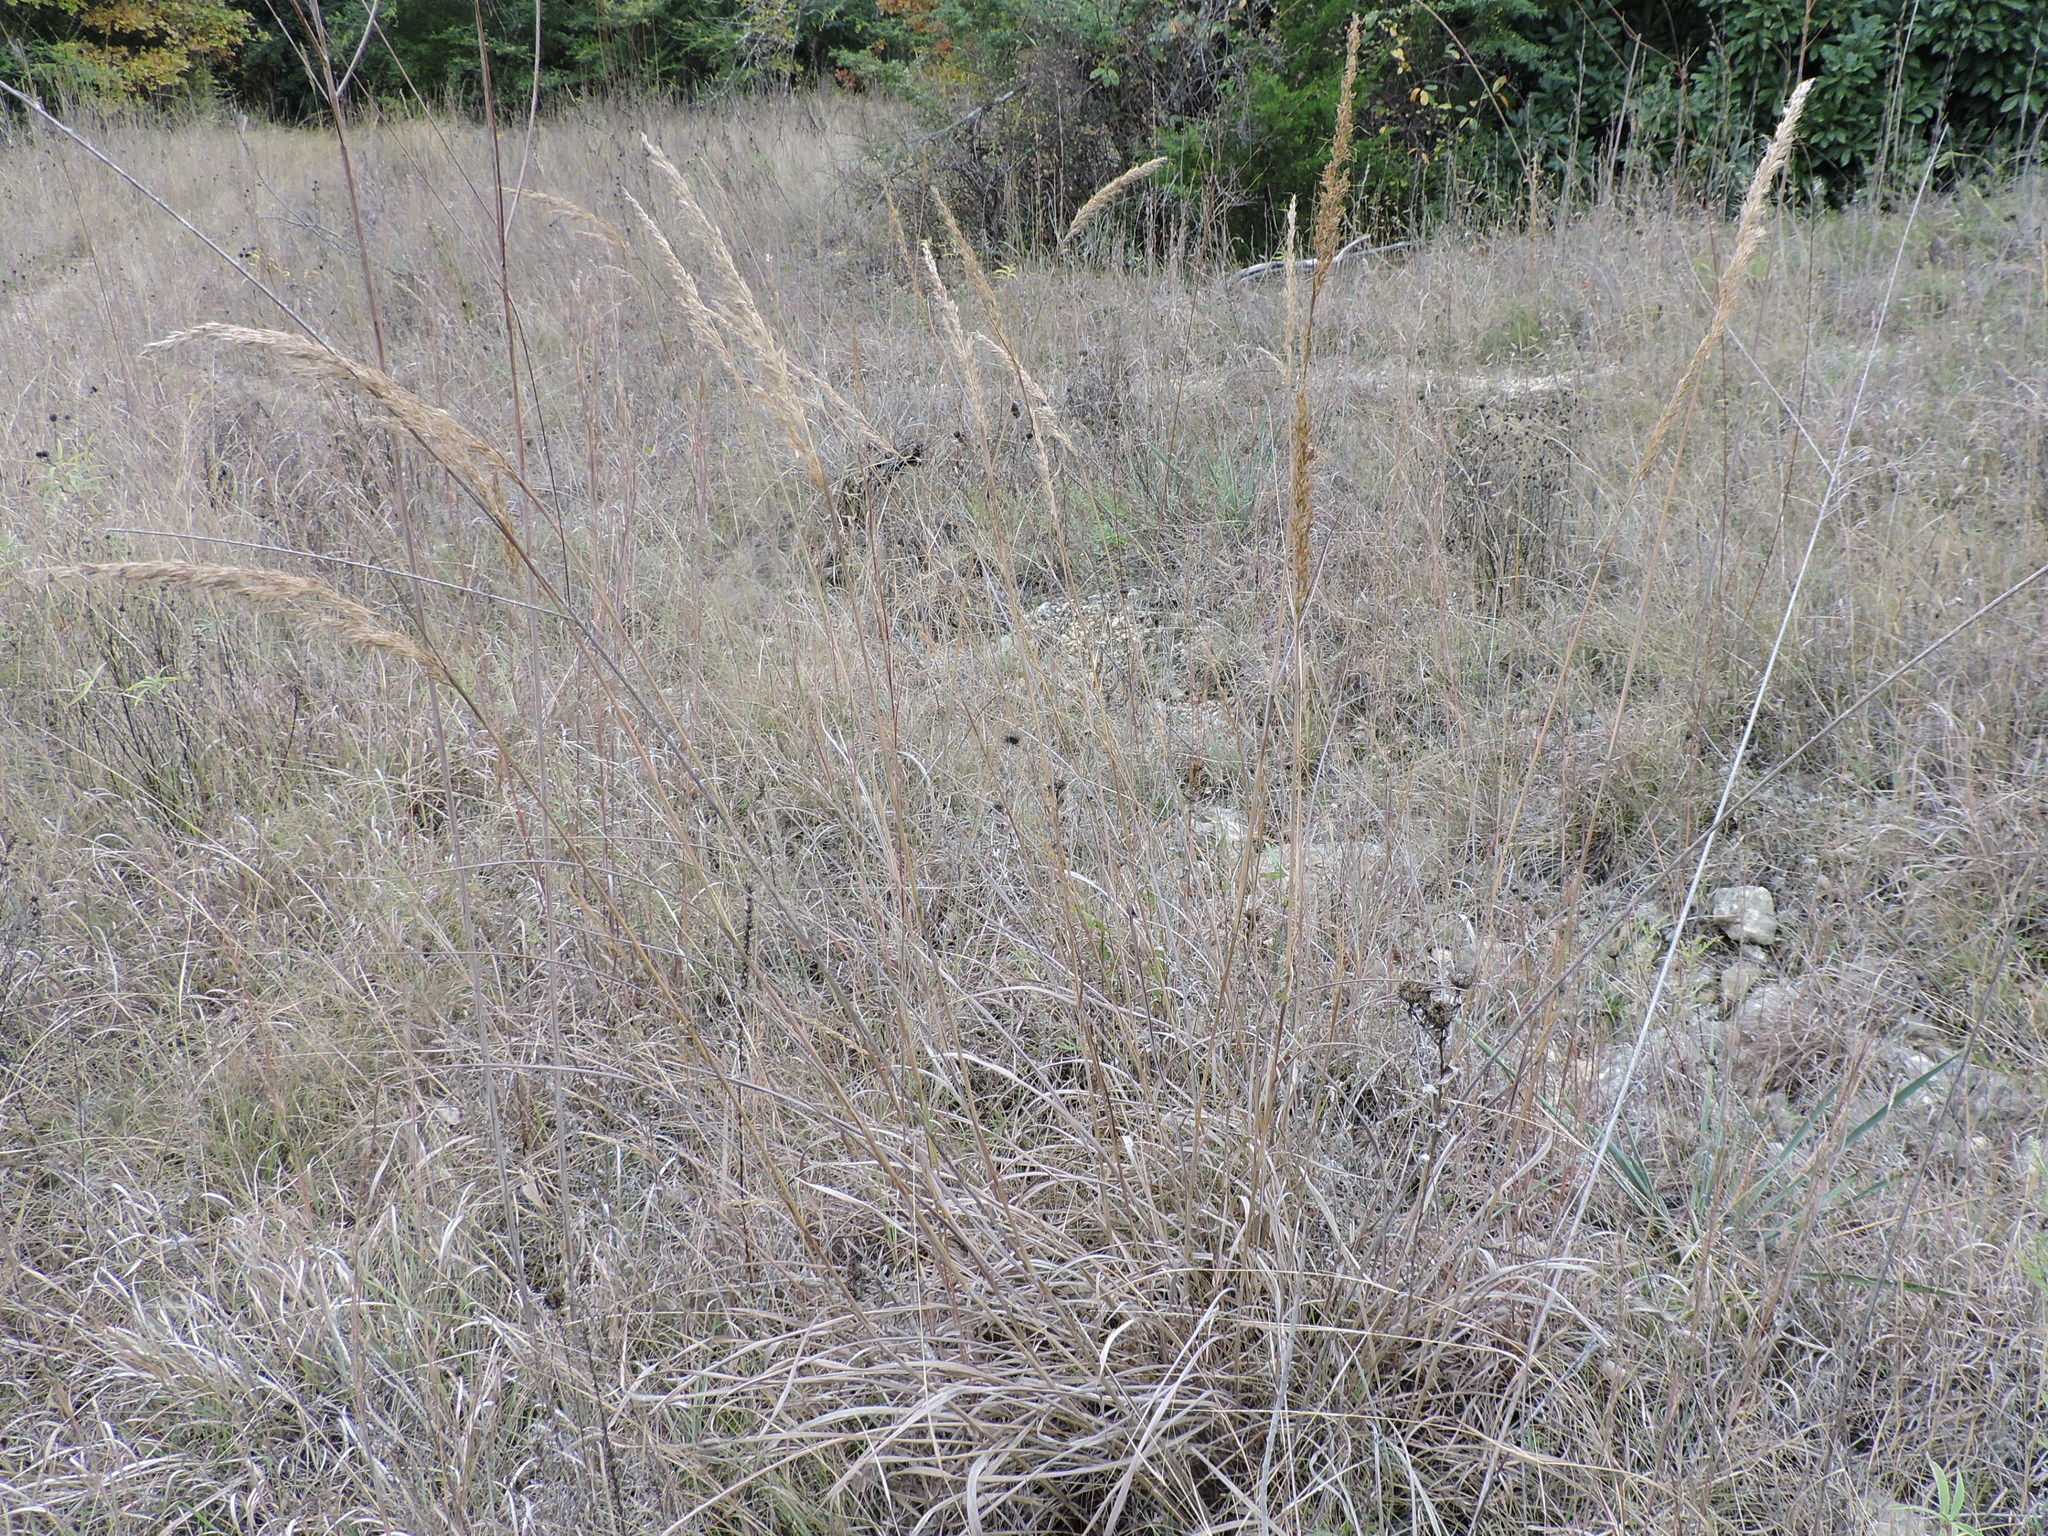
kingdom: Plantae
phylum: Tracheophyta
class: Liliopsida
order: Poales
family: Poaceae
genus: Sorghastrum
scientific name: Sorghastrum nutans
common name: Indian grass
